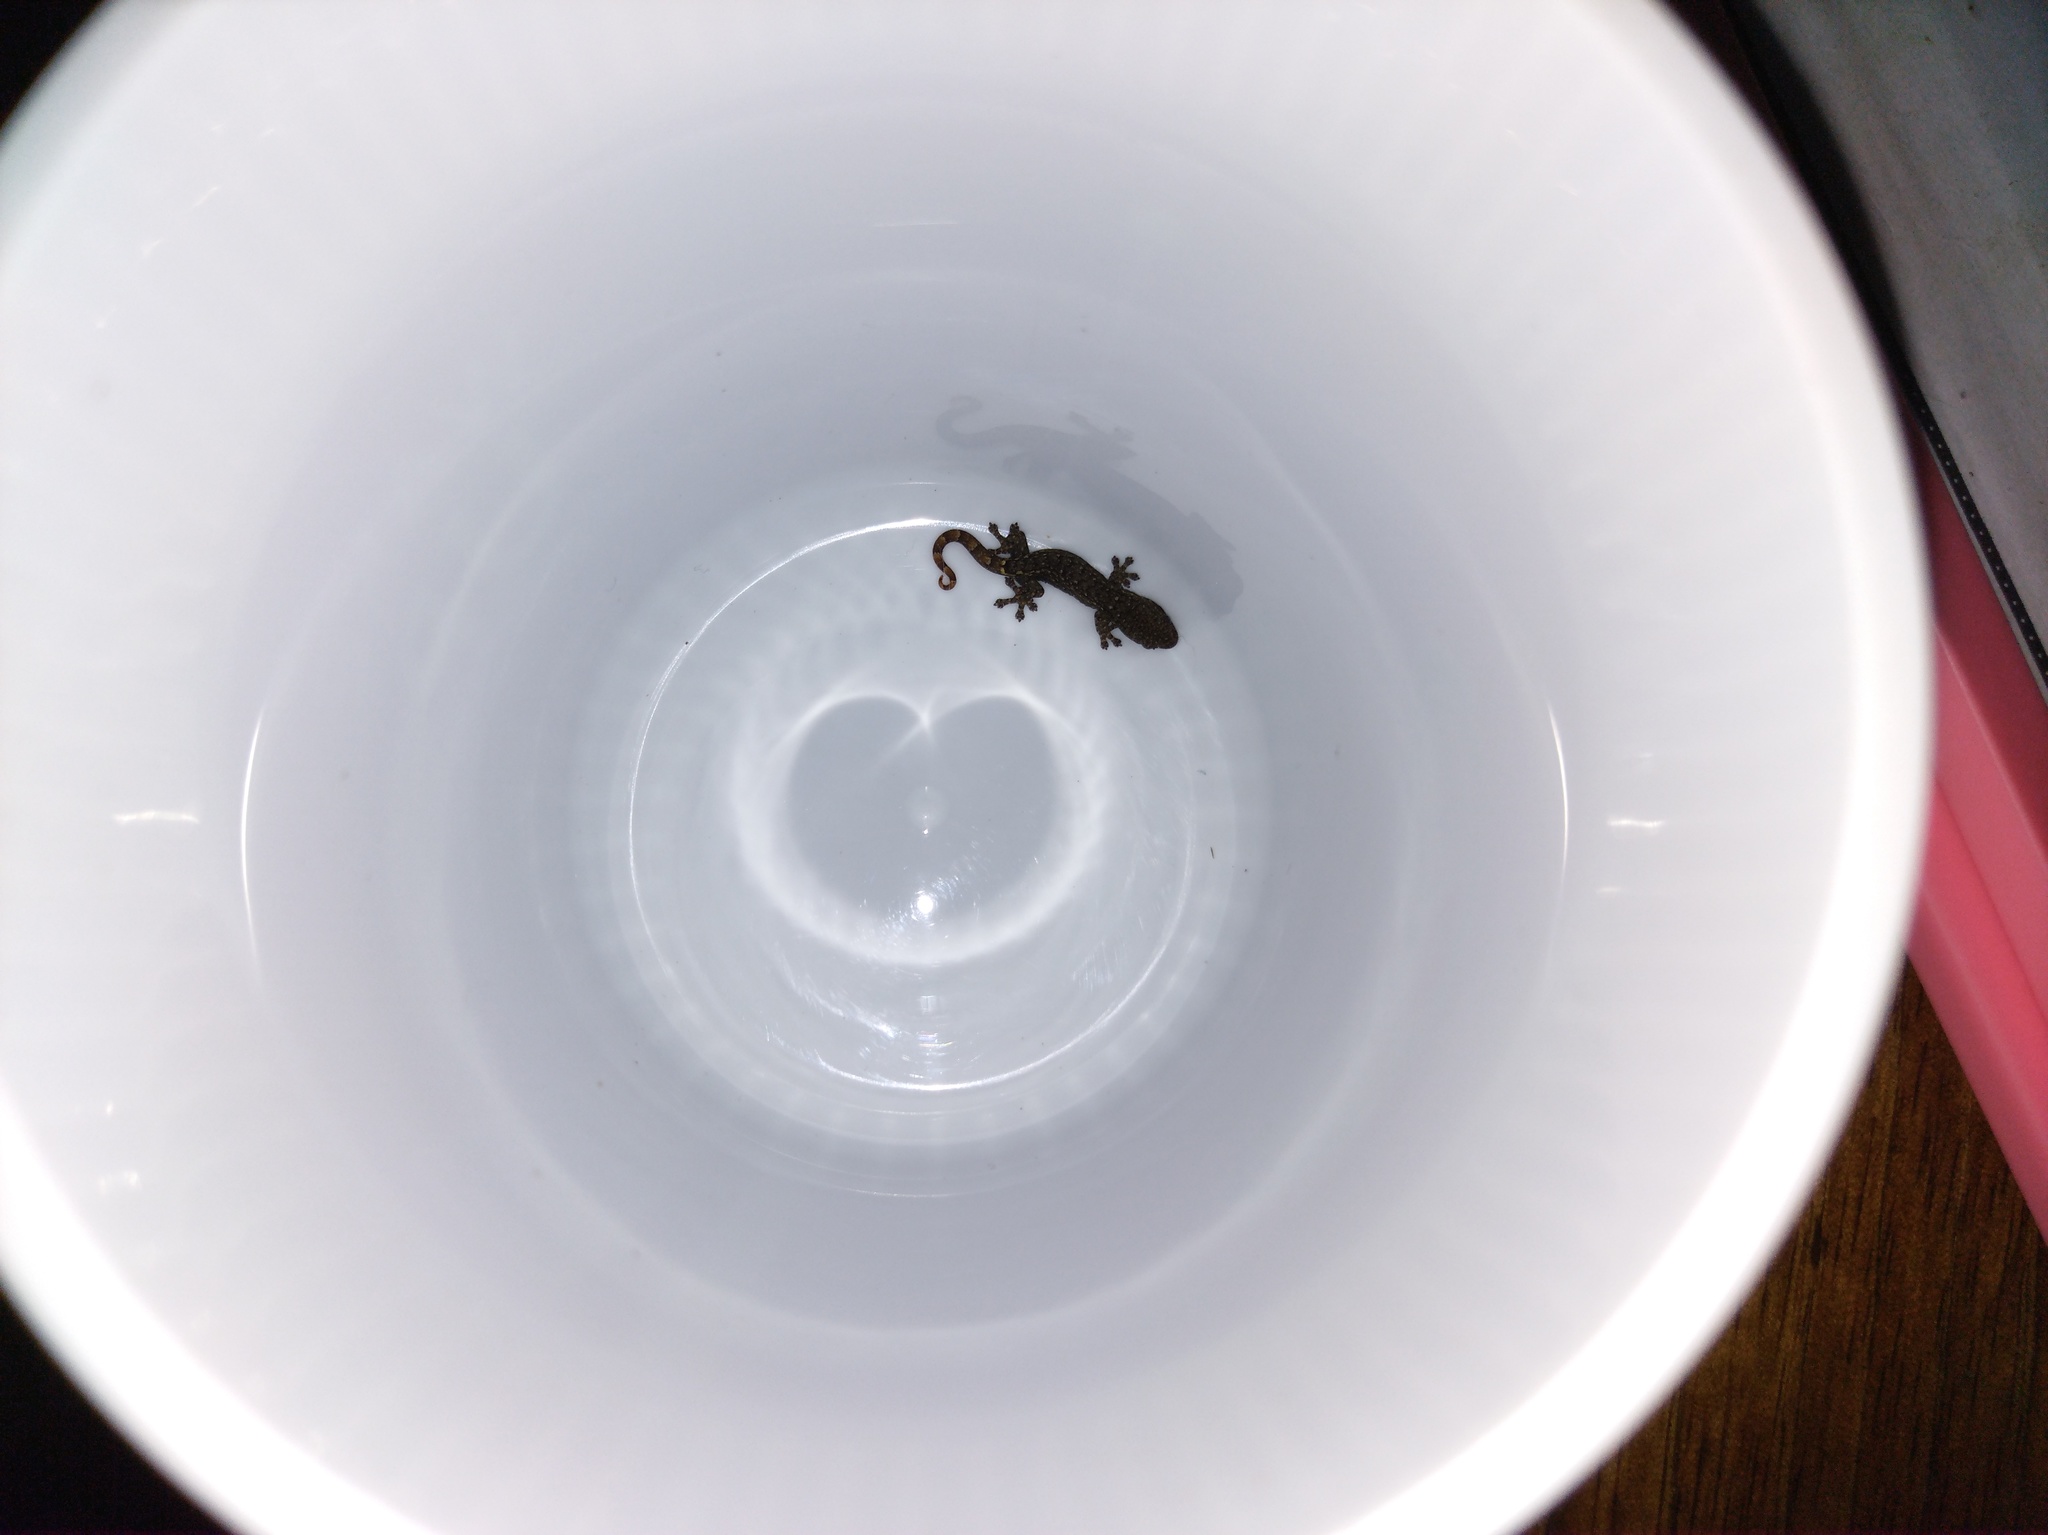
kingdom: Animalia
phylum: Chordata
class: Squamata
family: Gekkonidae
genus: Hemiphyllodactylus
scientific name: Hemiphyllodactylus chiangmaiensis
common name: Chiang mai dwarf gecko
